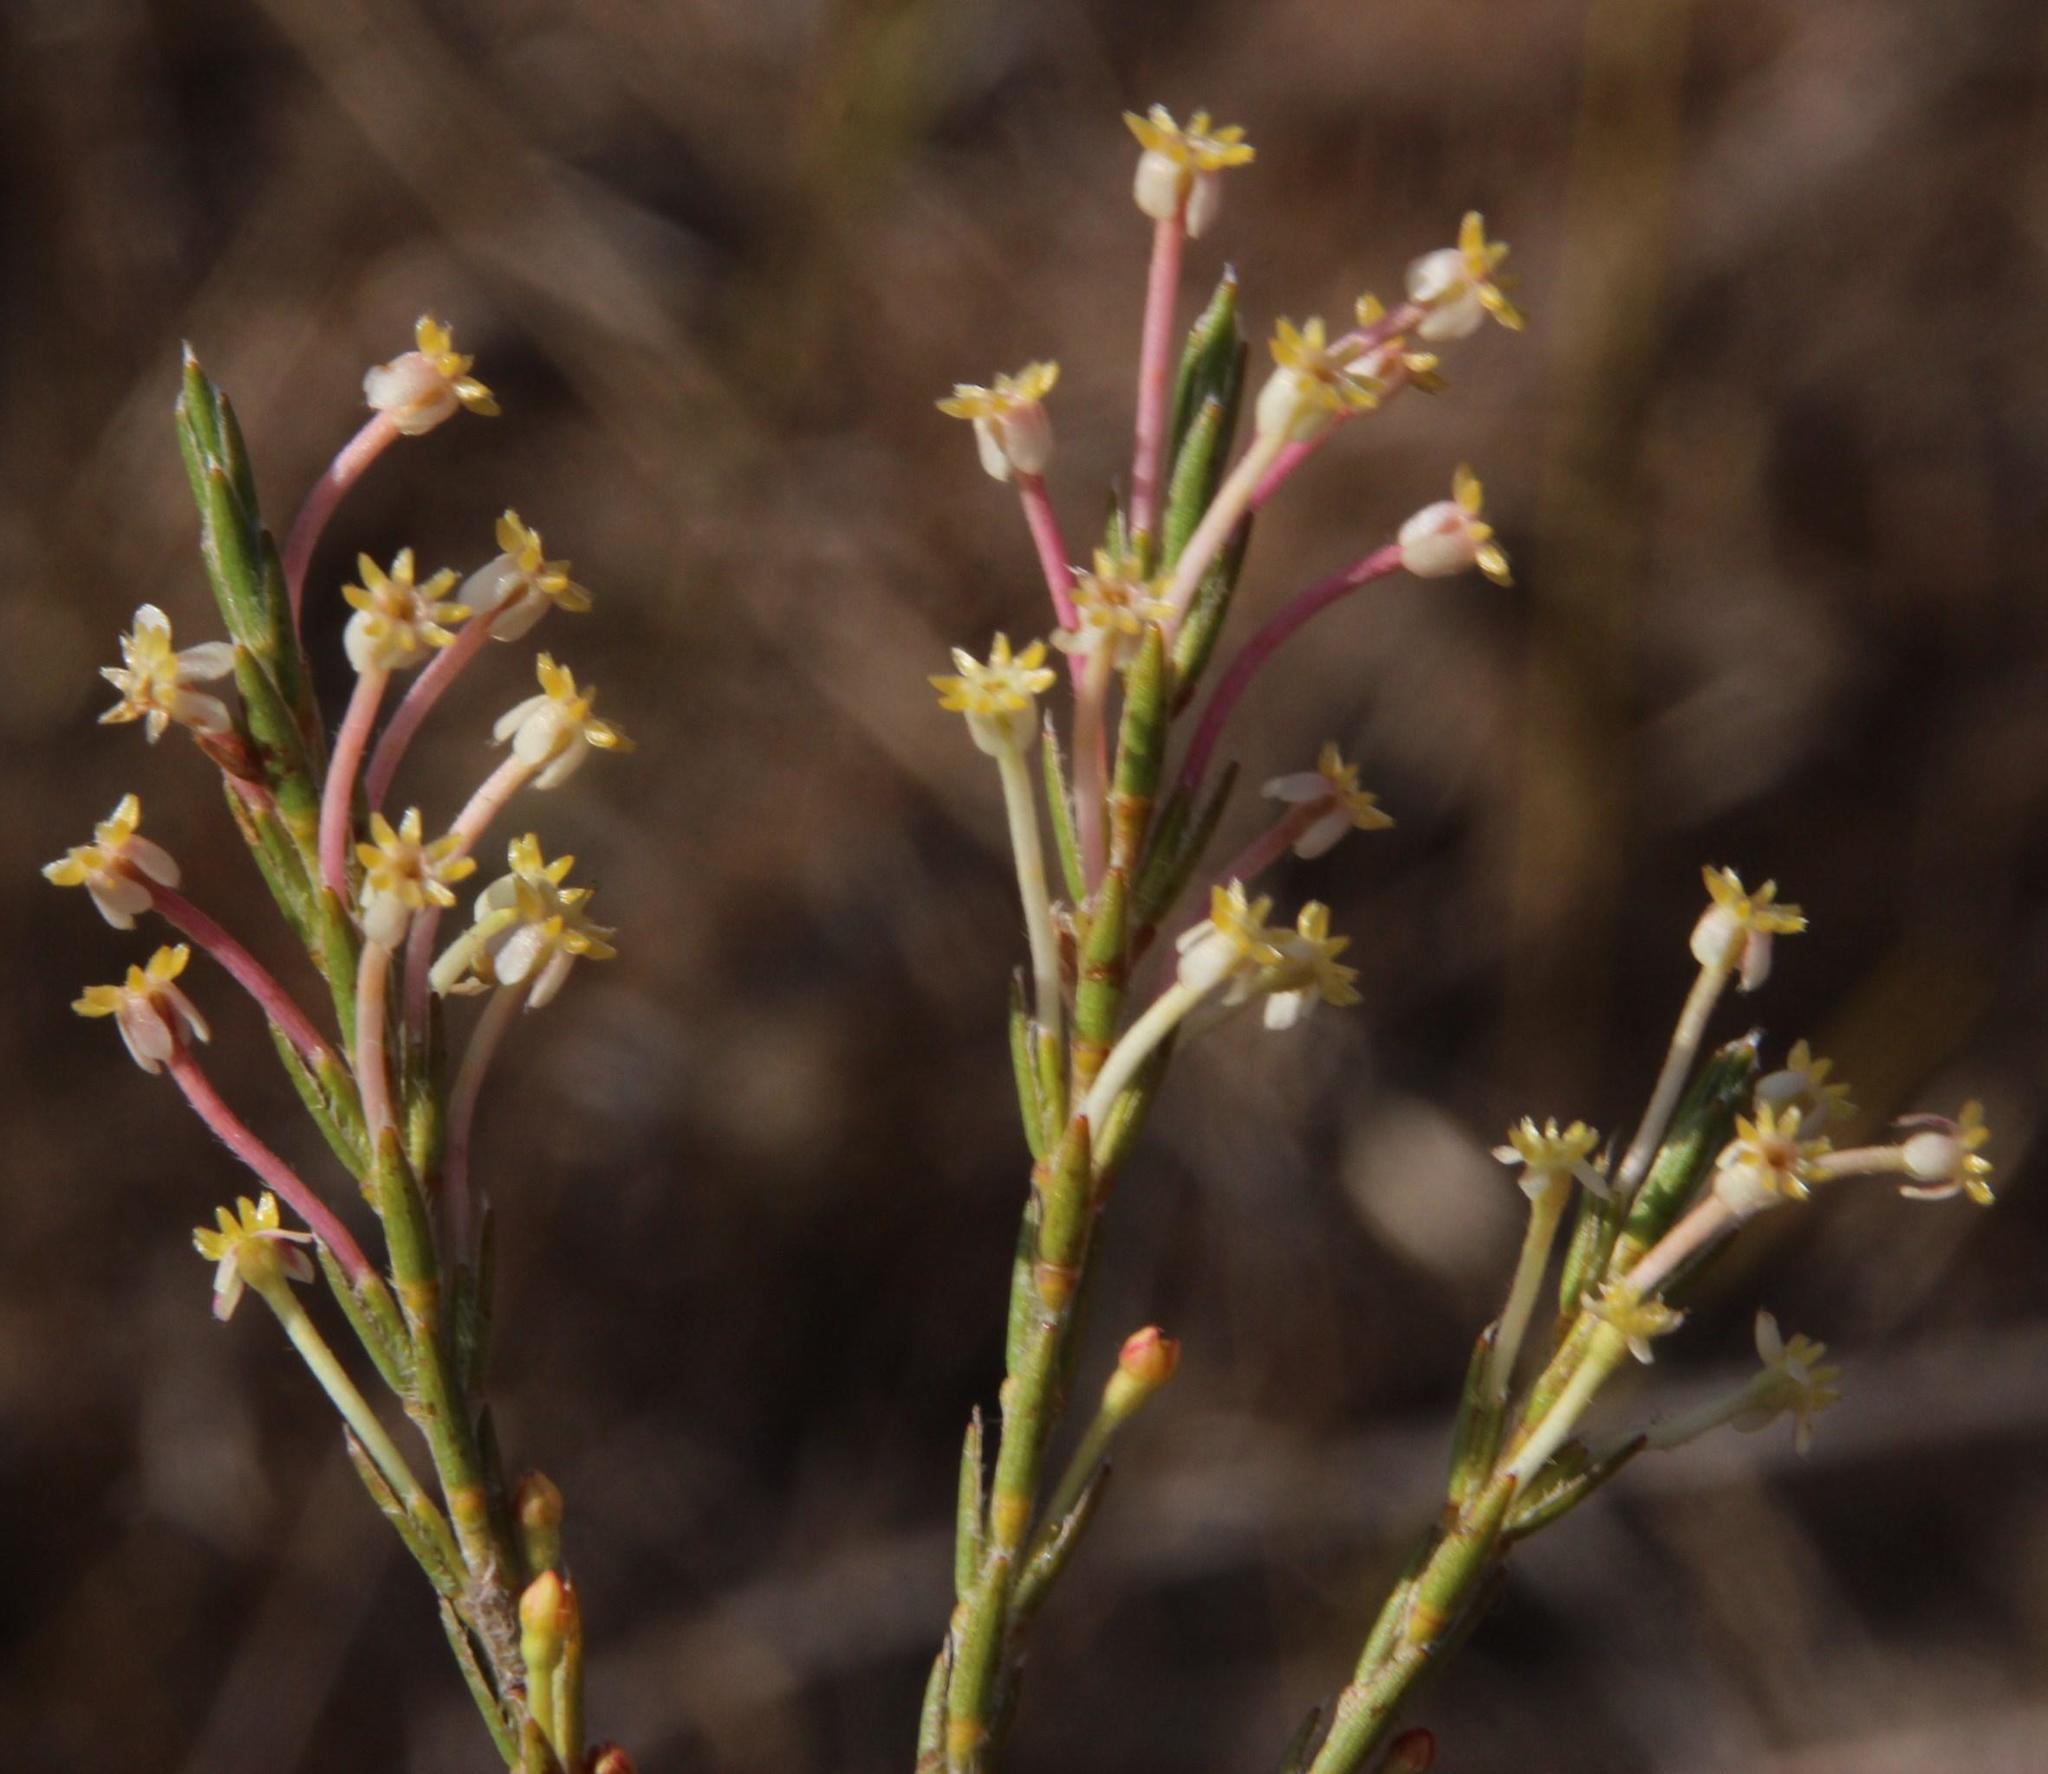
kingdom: Plantae
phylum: Tracheophyta
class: Magnoliopsida
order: Malvales
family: Thymelaeaceae
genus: Struthiola
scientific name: Struthiola ciliata
